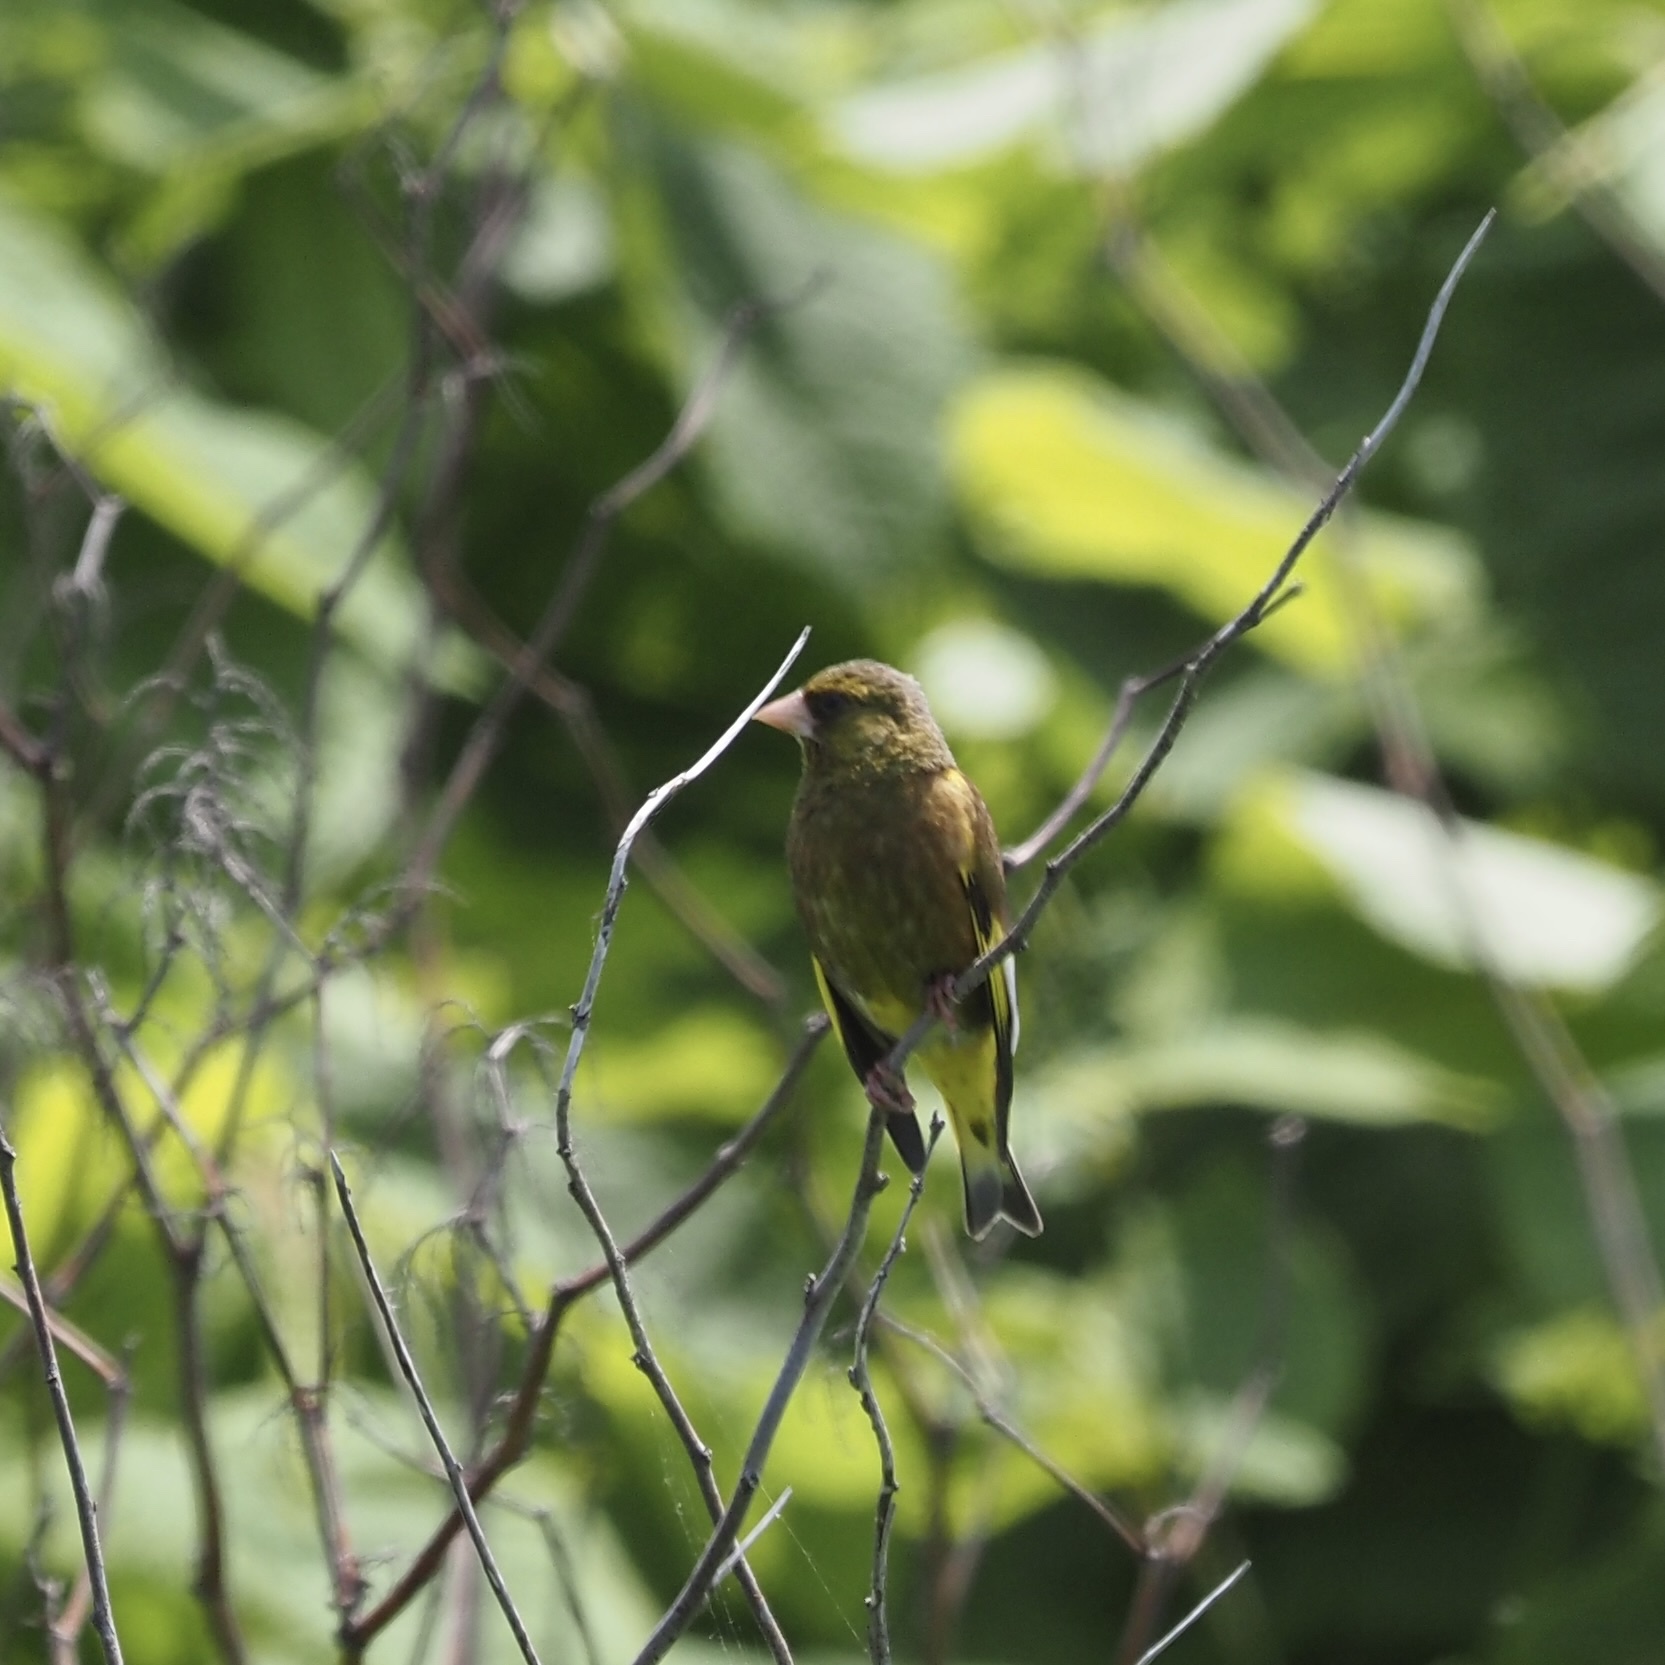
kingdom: Plantae
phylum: Tracheophyta
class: Liliopsida
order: Poales
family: Poaceae
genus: Chloris
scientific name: Chloris sinica
